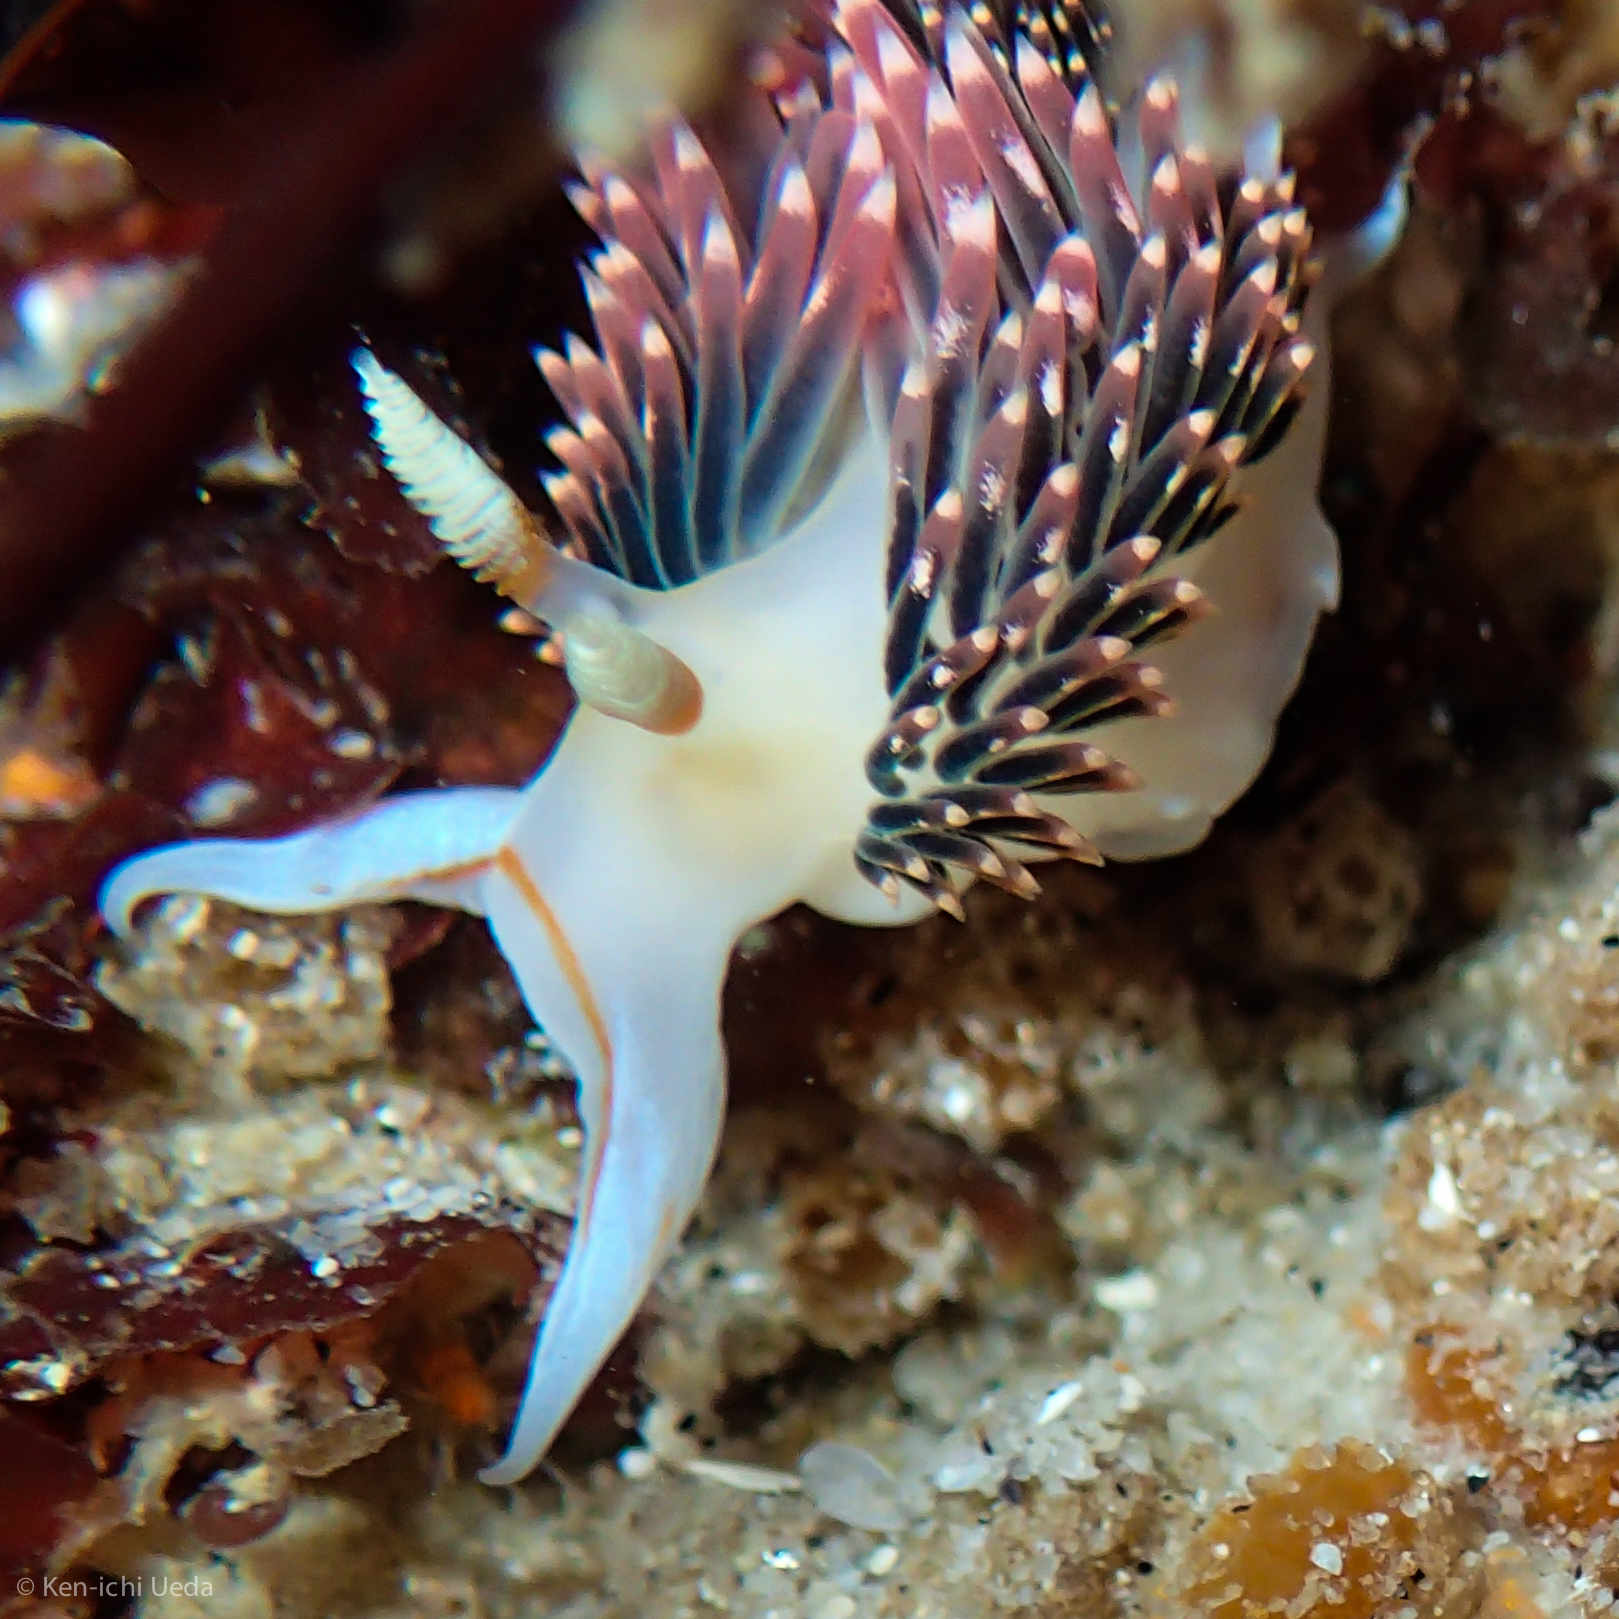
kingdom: Animalia
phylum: Mollusca
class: Gastropoda
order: Nudibranchia
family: Facelinidae
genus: Phidiana
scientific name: Phidiana hiltoni
